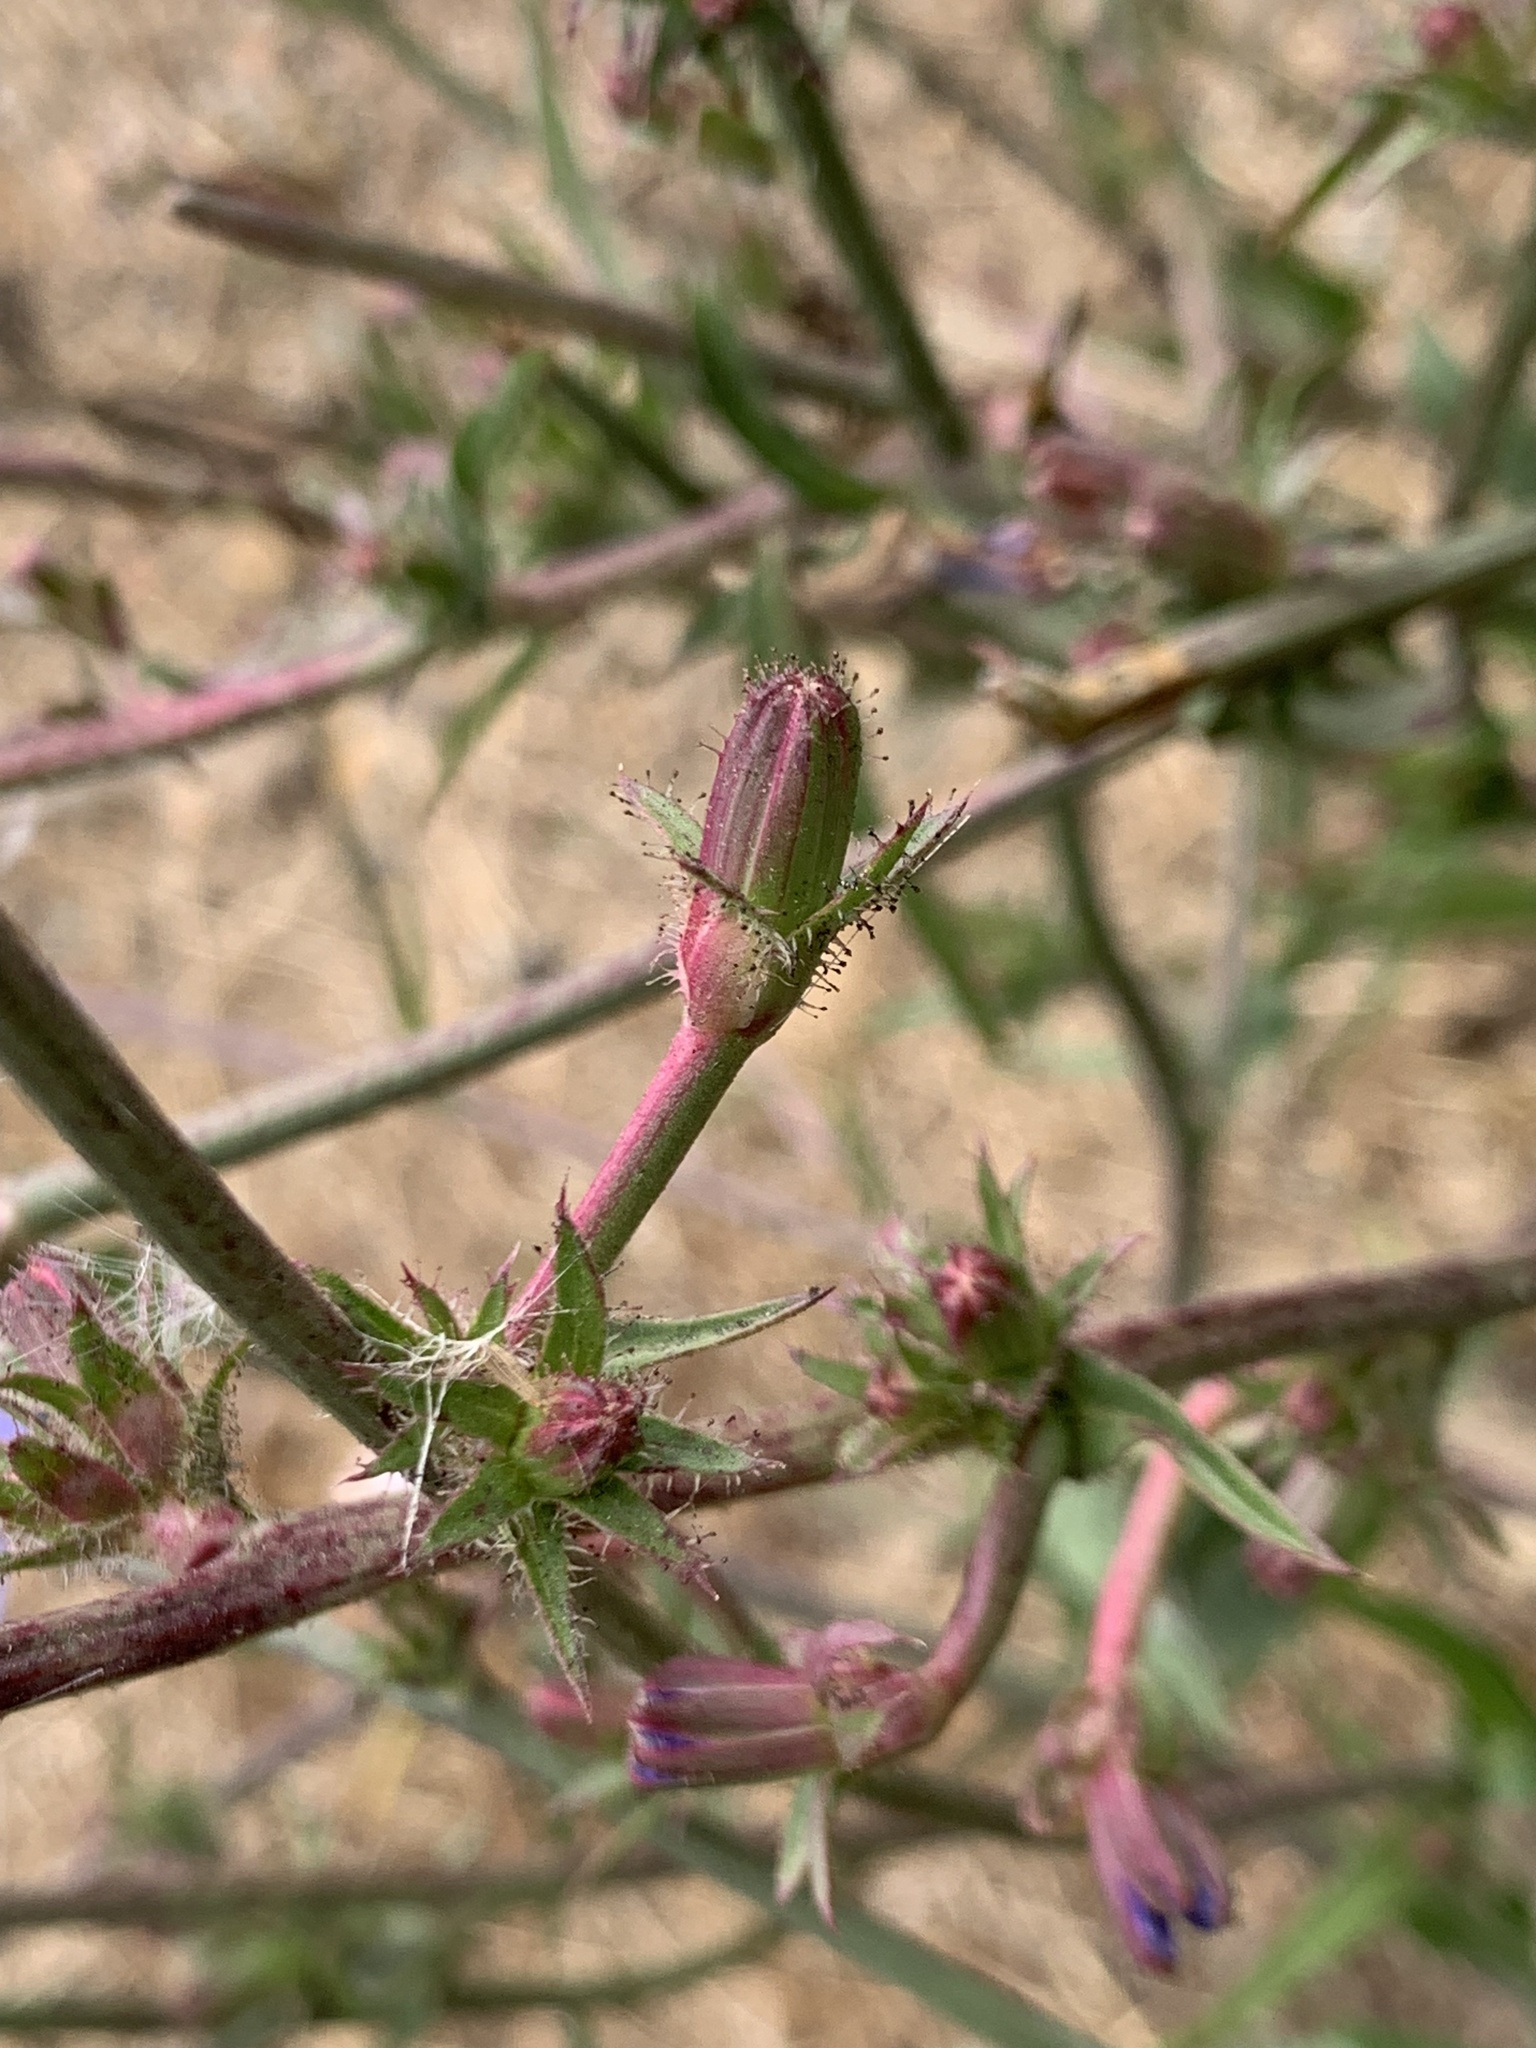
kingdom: Plantae
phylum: Tracheophyta
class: Magnoliopsida
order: Asterales
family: Asteraceae
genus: Cichorium
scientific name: Cichorium intybus
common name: Chicory
